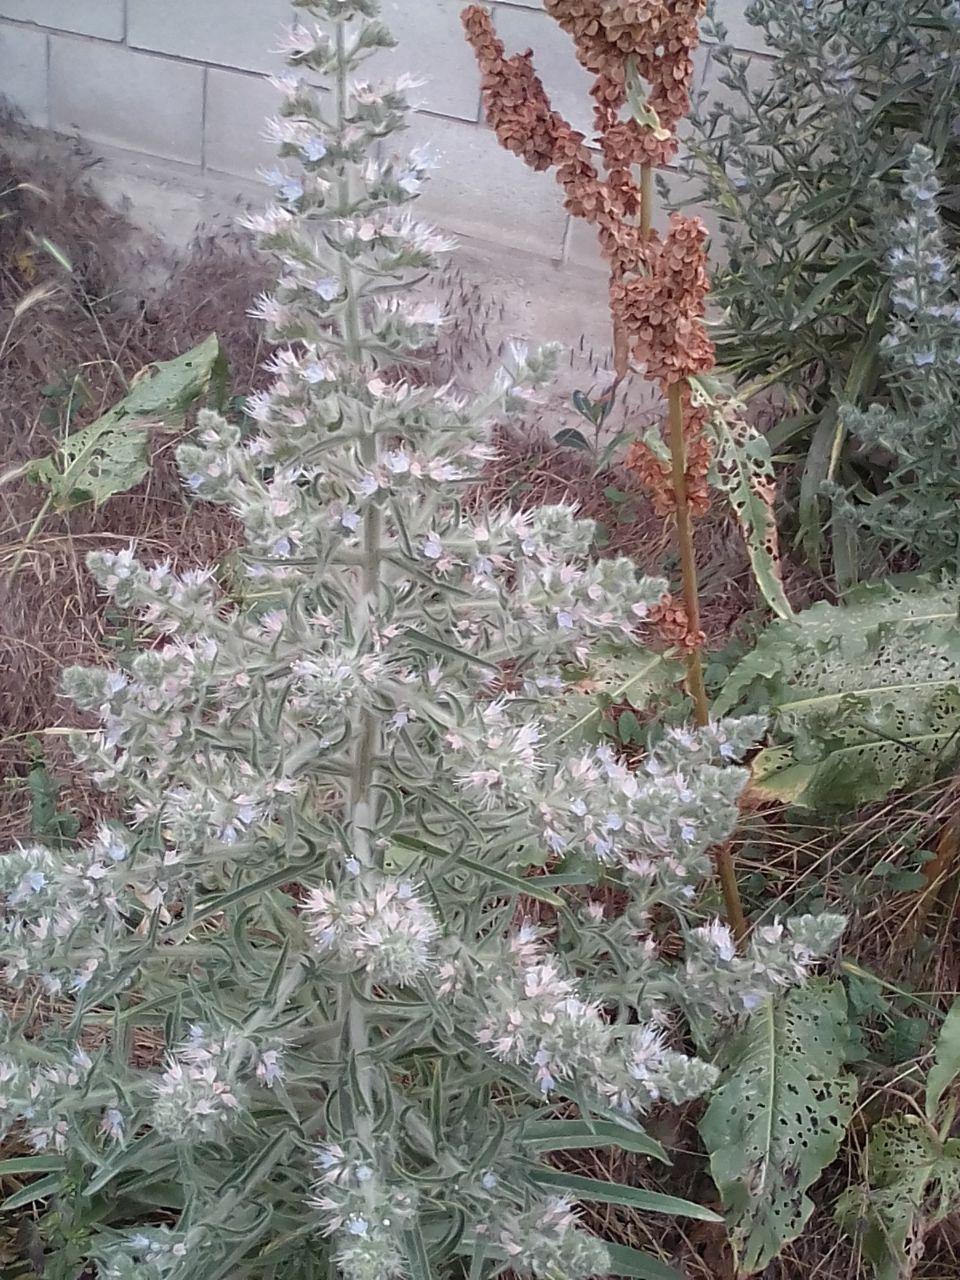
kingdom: Plantae
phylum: Tracheophyta
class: Magnoliopsida
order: Boraginales
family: Boraginaceae
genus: Echium
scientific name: Echium italicum
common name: Italian viper's bugloss
